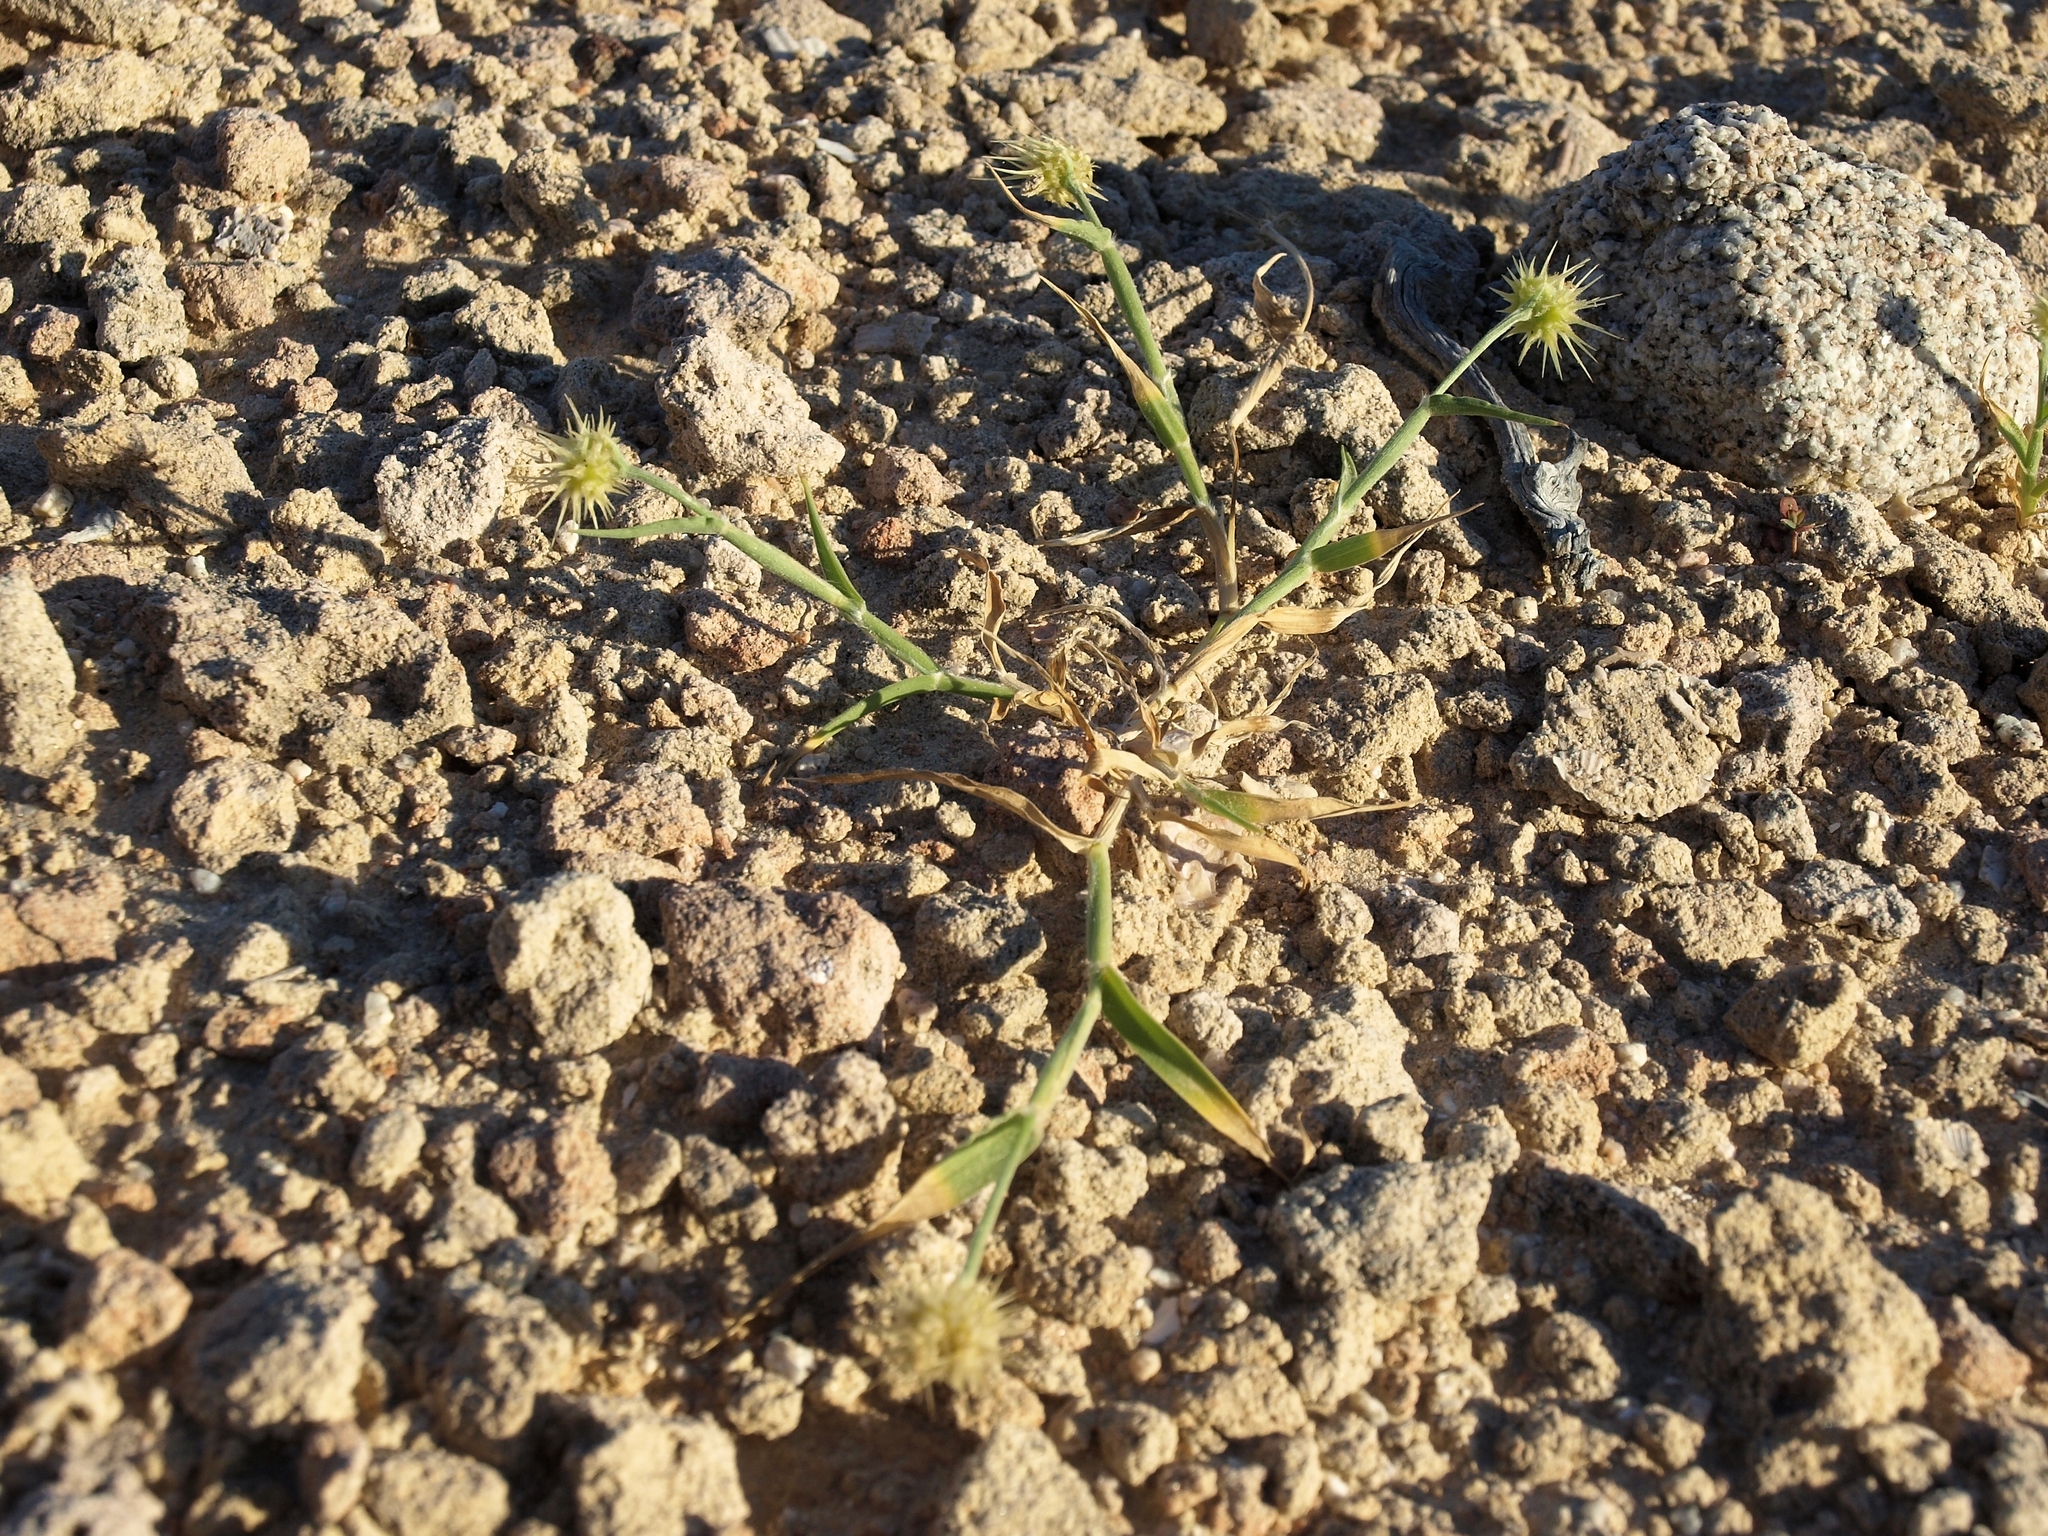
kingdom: Plantae
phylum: Tracheophyta
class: Liliopsida
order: Poales
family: Poaceae
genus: Cenchrus
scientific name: Cenchrus palmeri
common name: Giant sandbur
